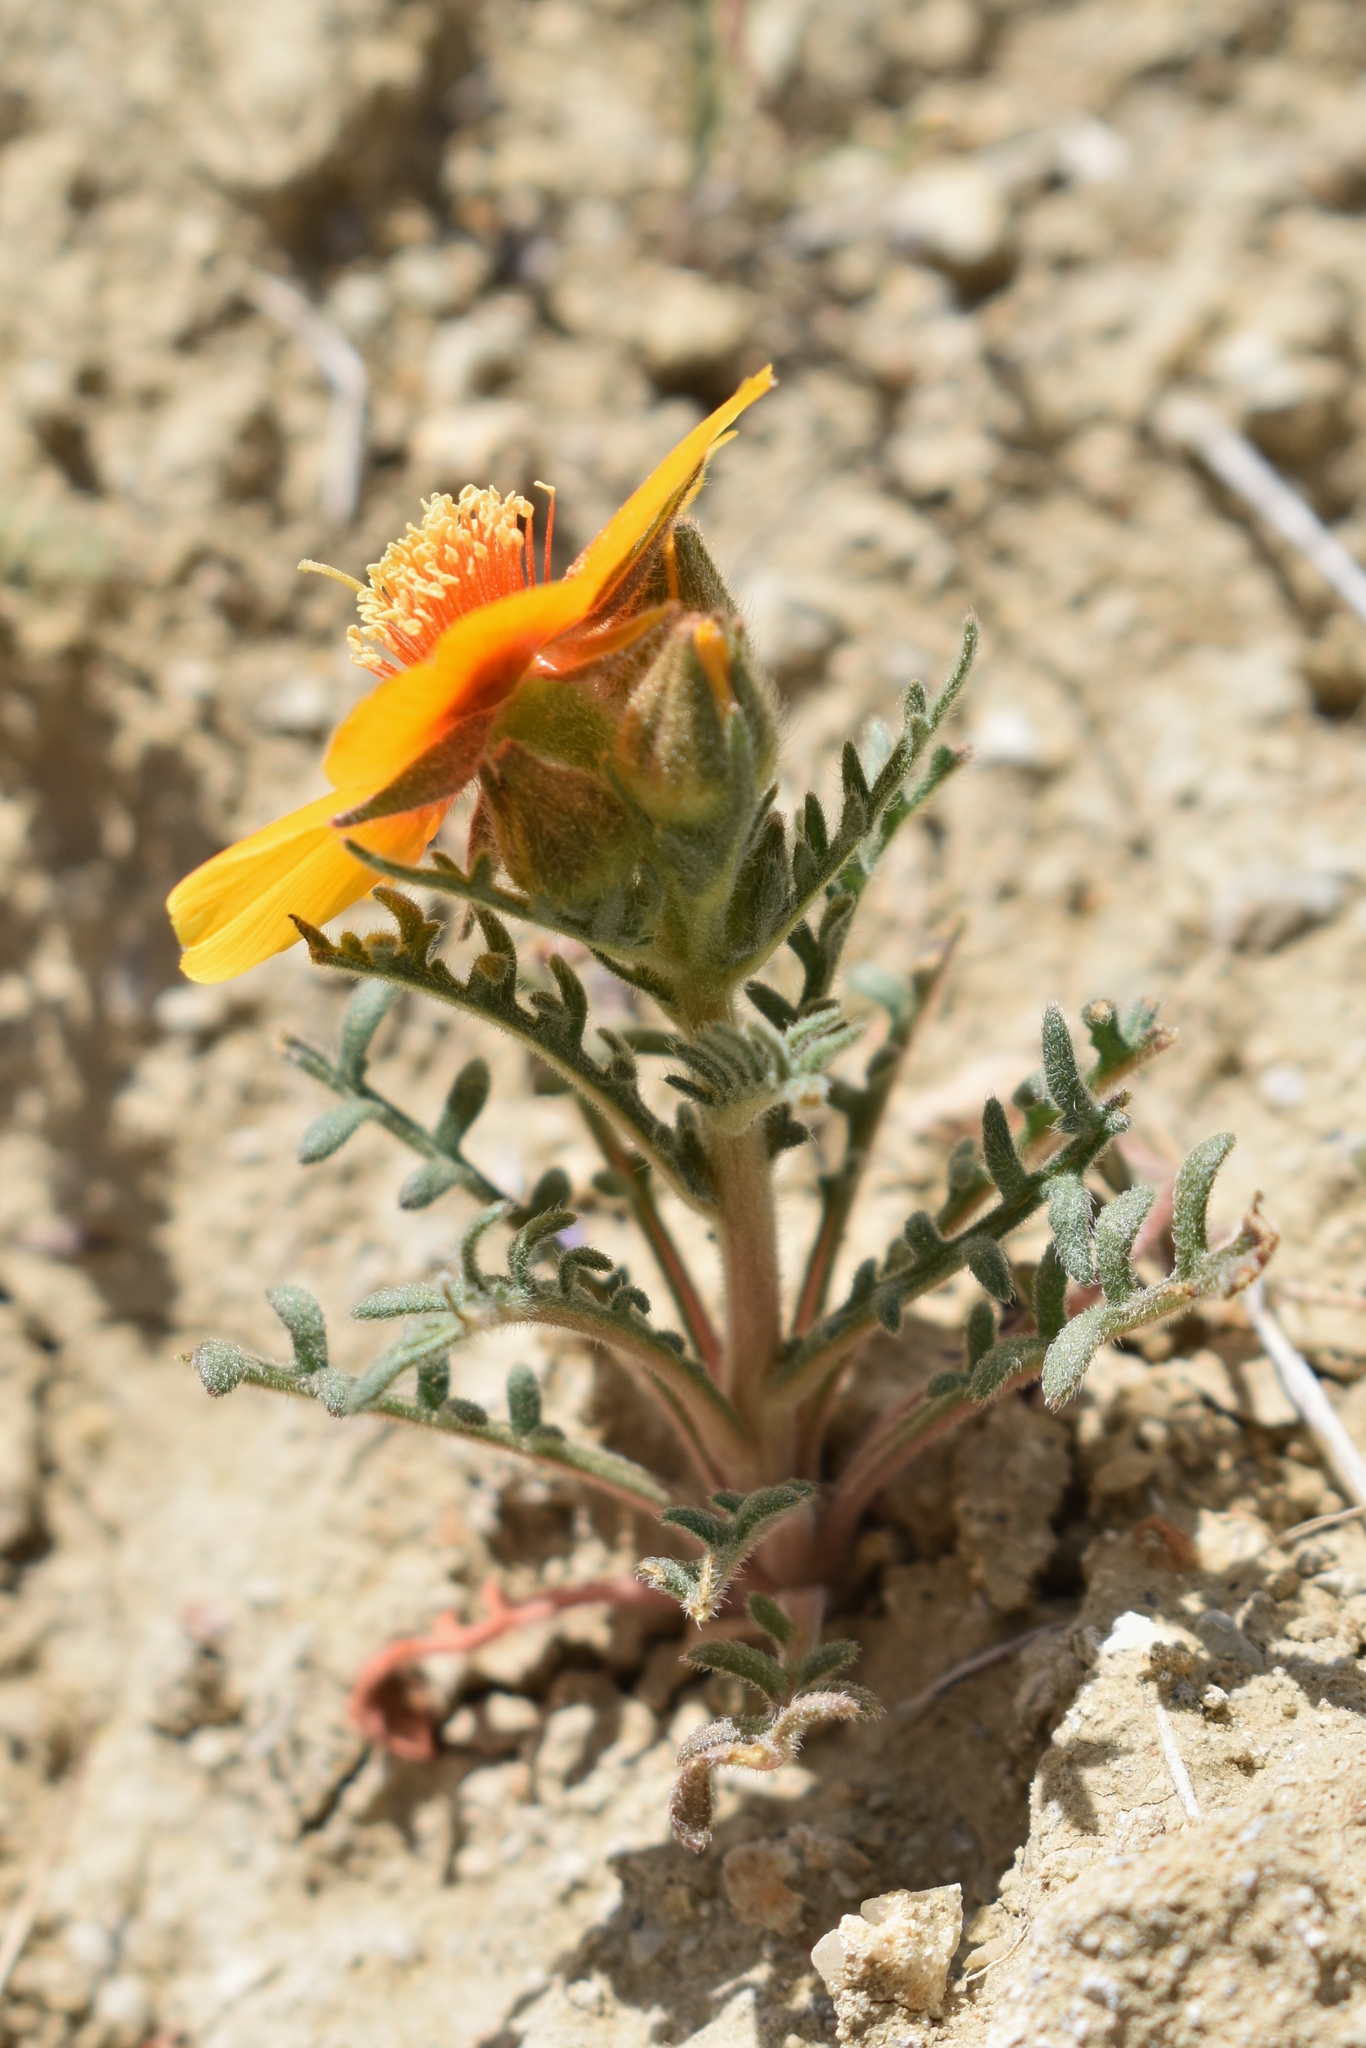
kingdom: Plantae
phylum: Tracheophyta
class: Magnoliopsida
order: Cornales
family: Loasaceae
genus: Mentzelia
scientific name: Mentzelia pectinata
